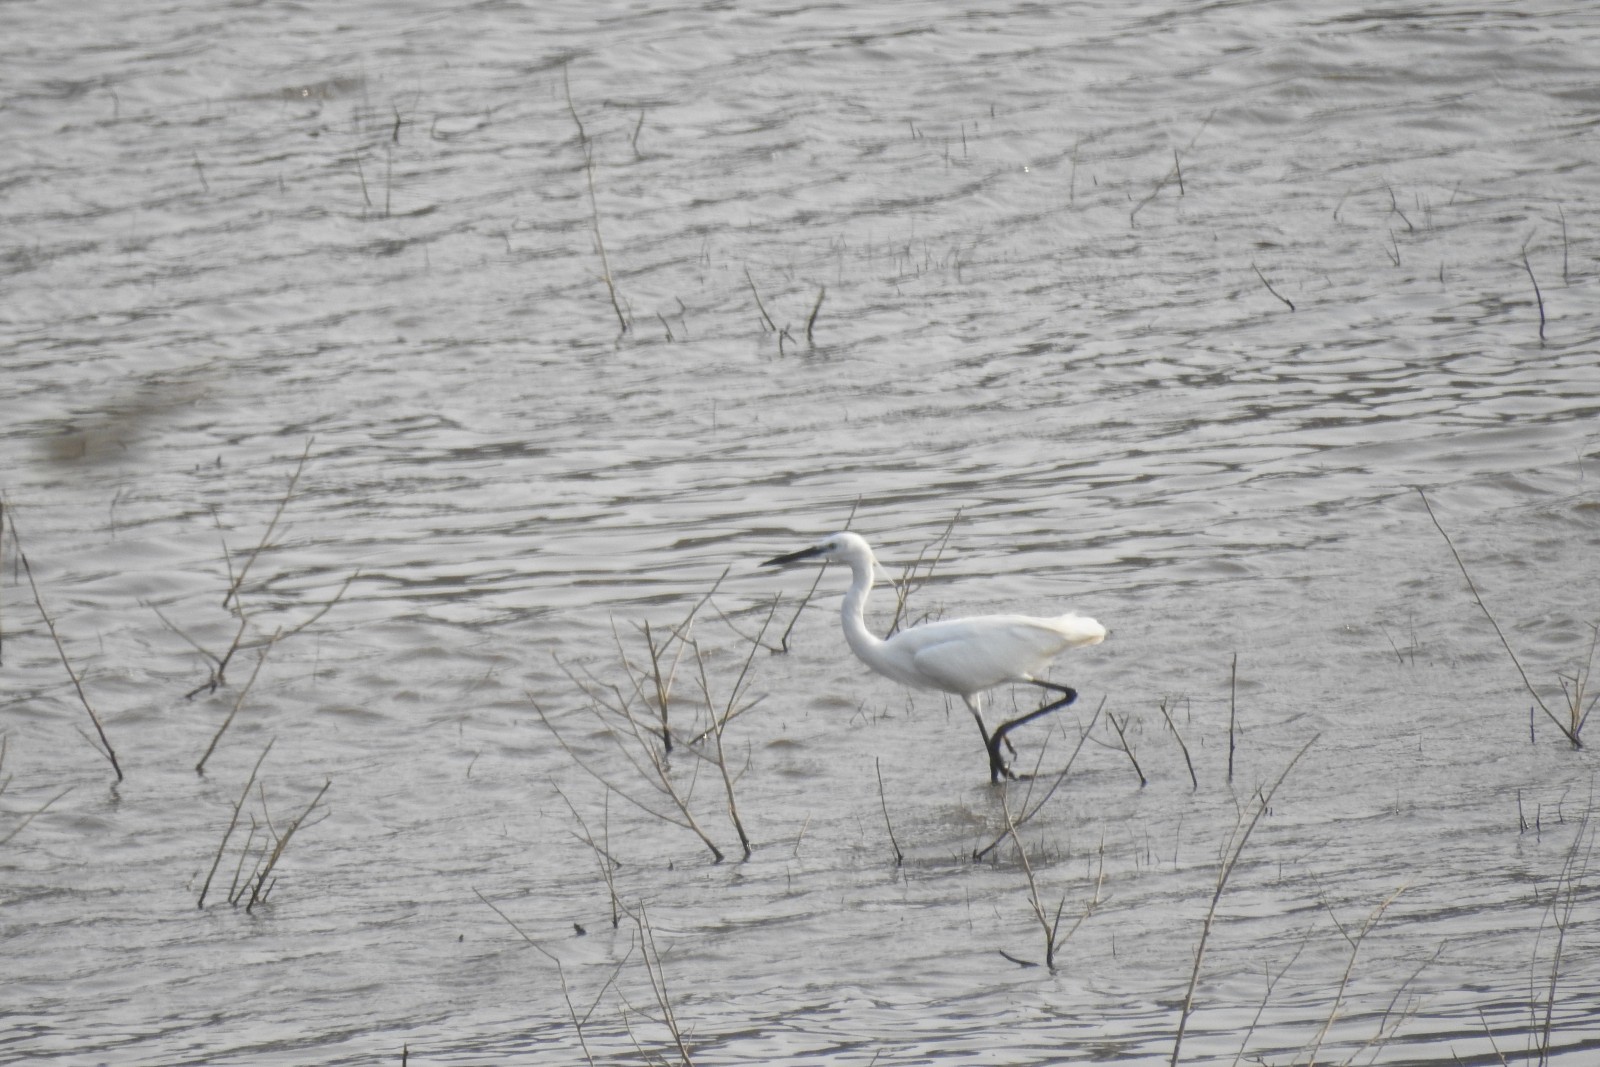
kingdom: Animalia
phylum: Chordata
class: Aves
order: Pelecaniformes
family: Ardeidae
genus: Egretta
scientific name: Egretta garzetta
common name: Little egret
